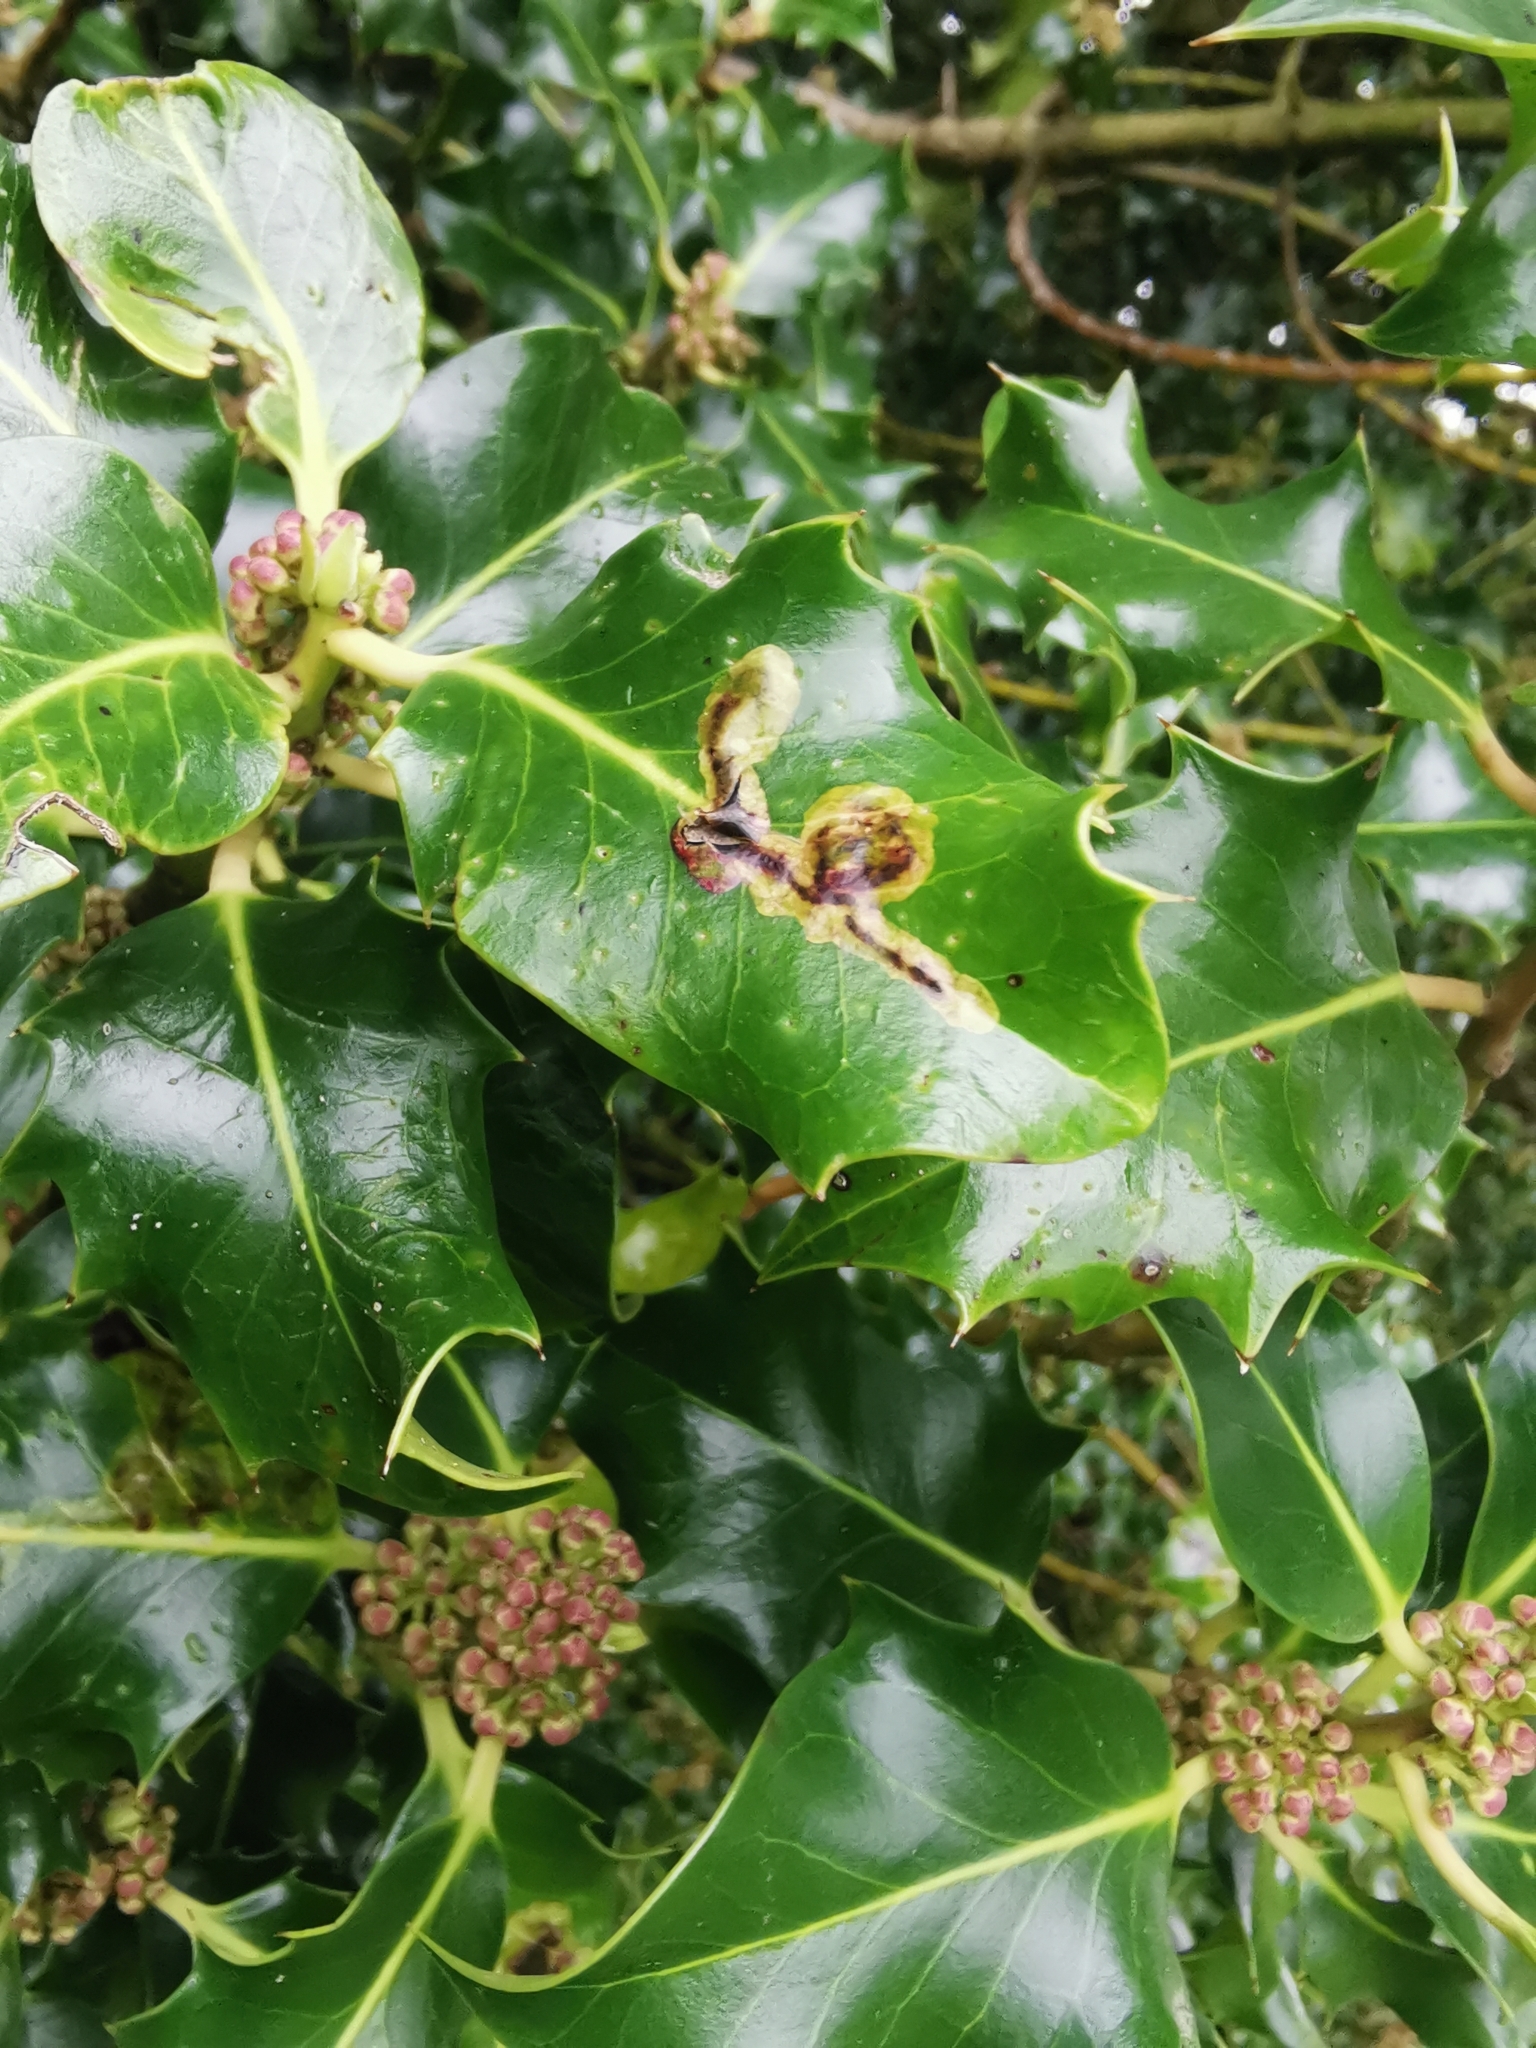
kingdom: Animalia
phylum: Arthropoda
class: Insecta
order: Diptera
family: Agromyzidae
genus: Phytomyza
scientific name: Phytomyza ilicis
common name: Holly leafminer
